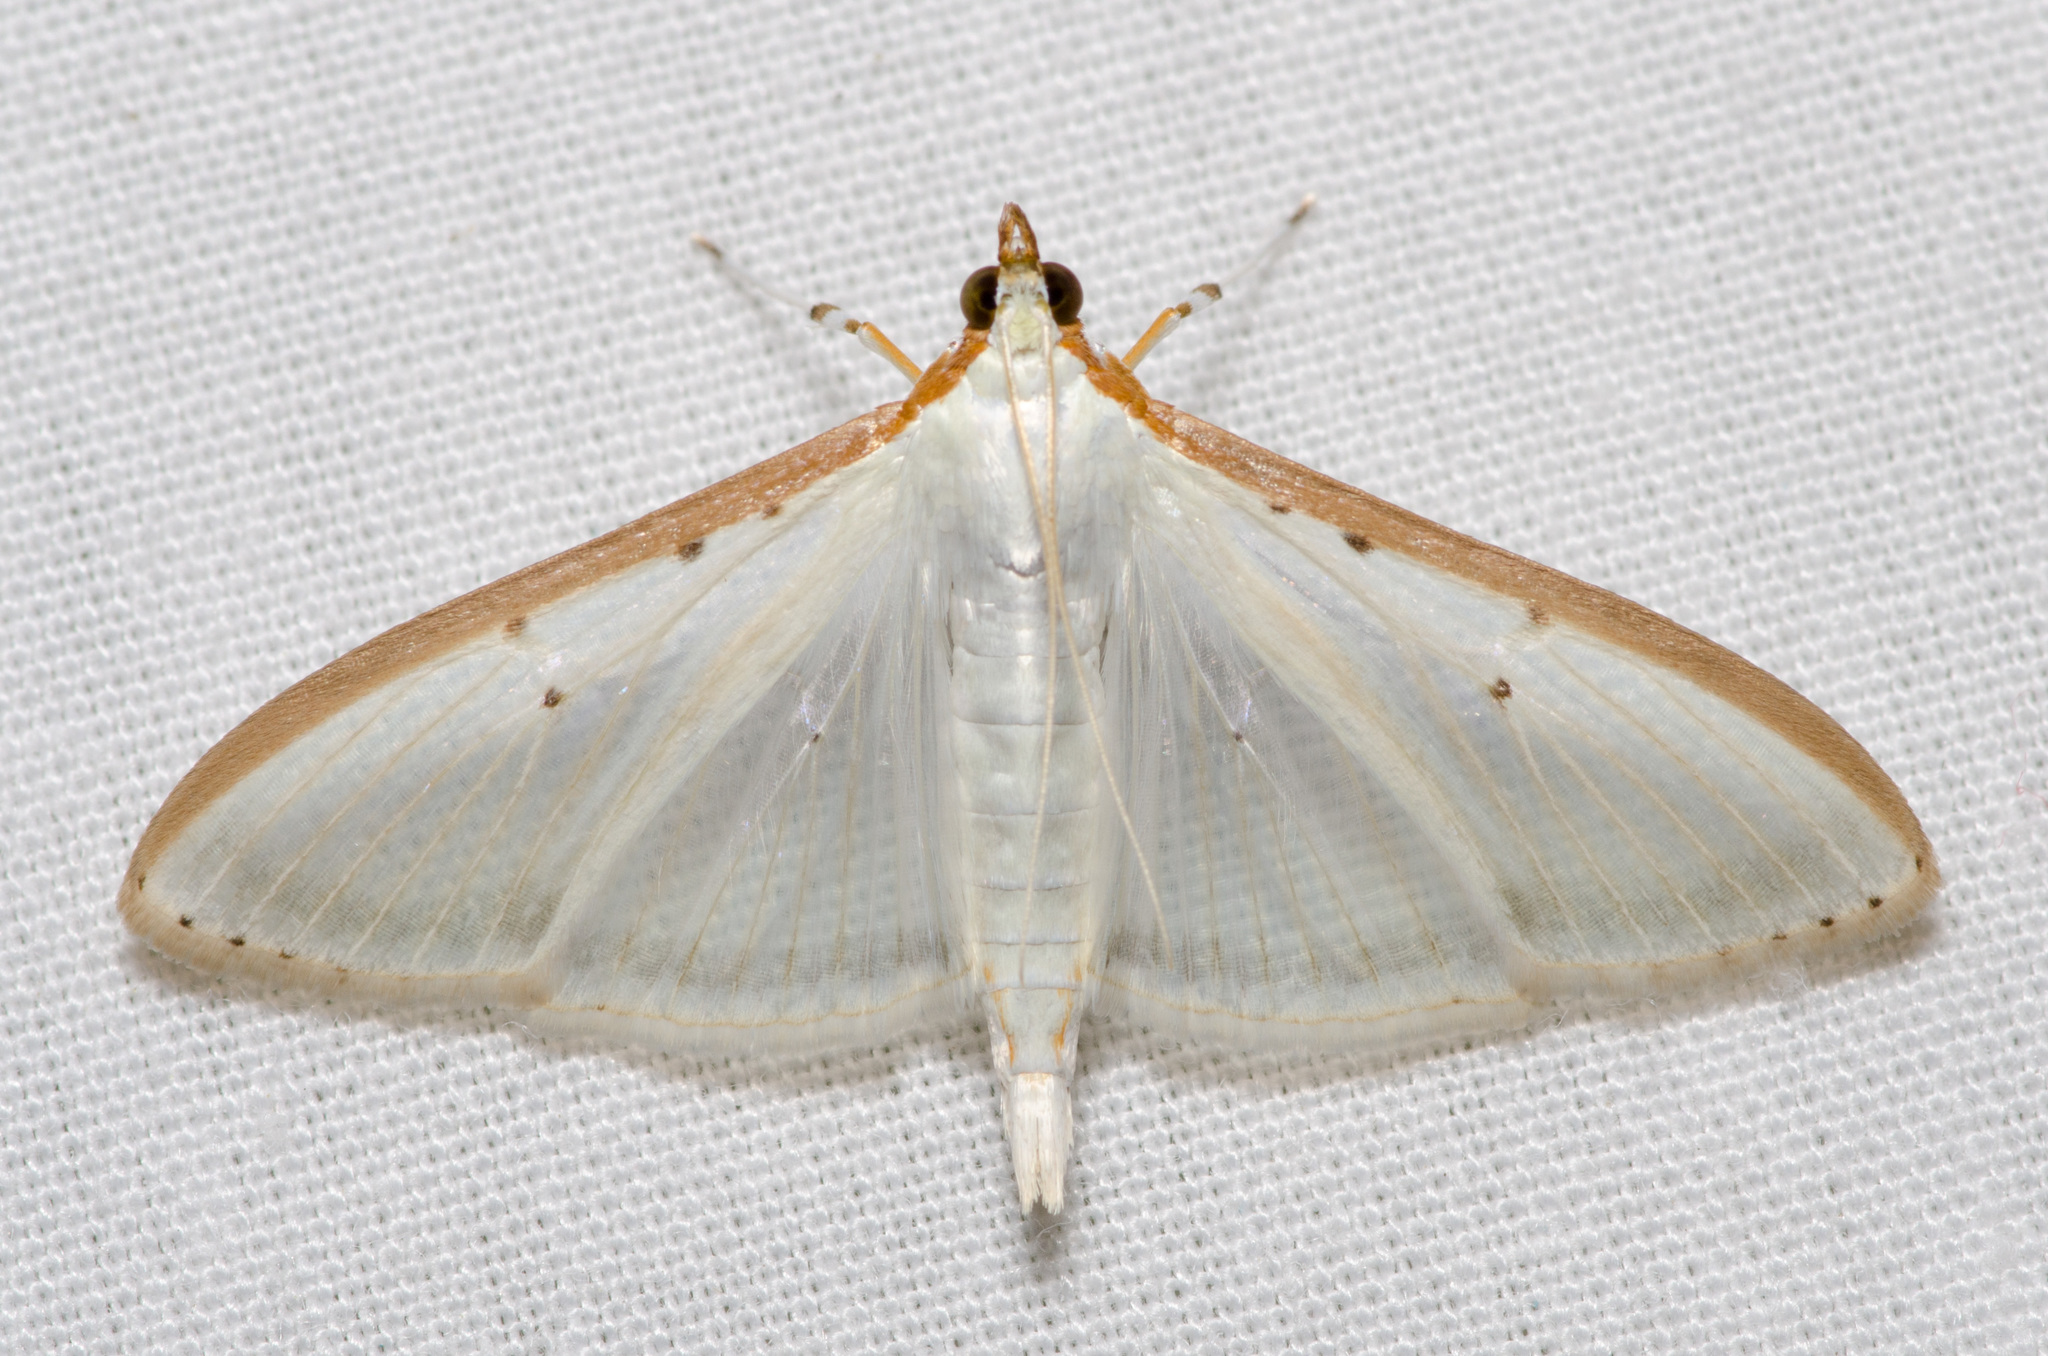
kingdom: Animalia
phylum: Arthropoda
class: Insecta
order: Lepidoptera
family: Crambidae
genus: Palpita
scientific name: Palpita quadristigmalis
